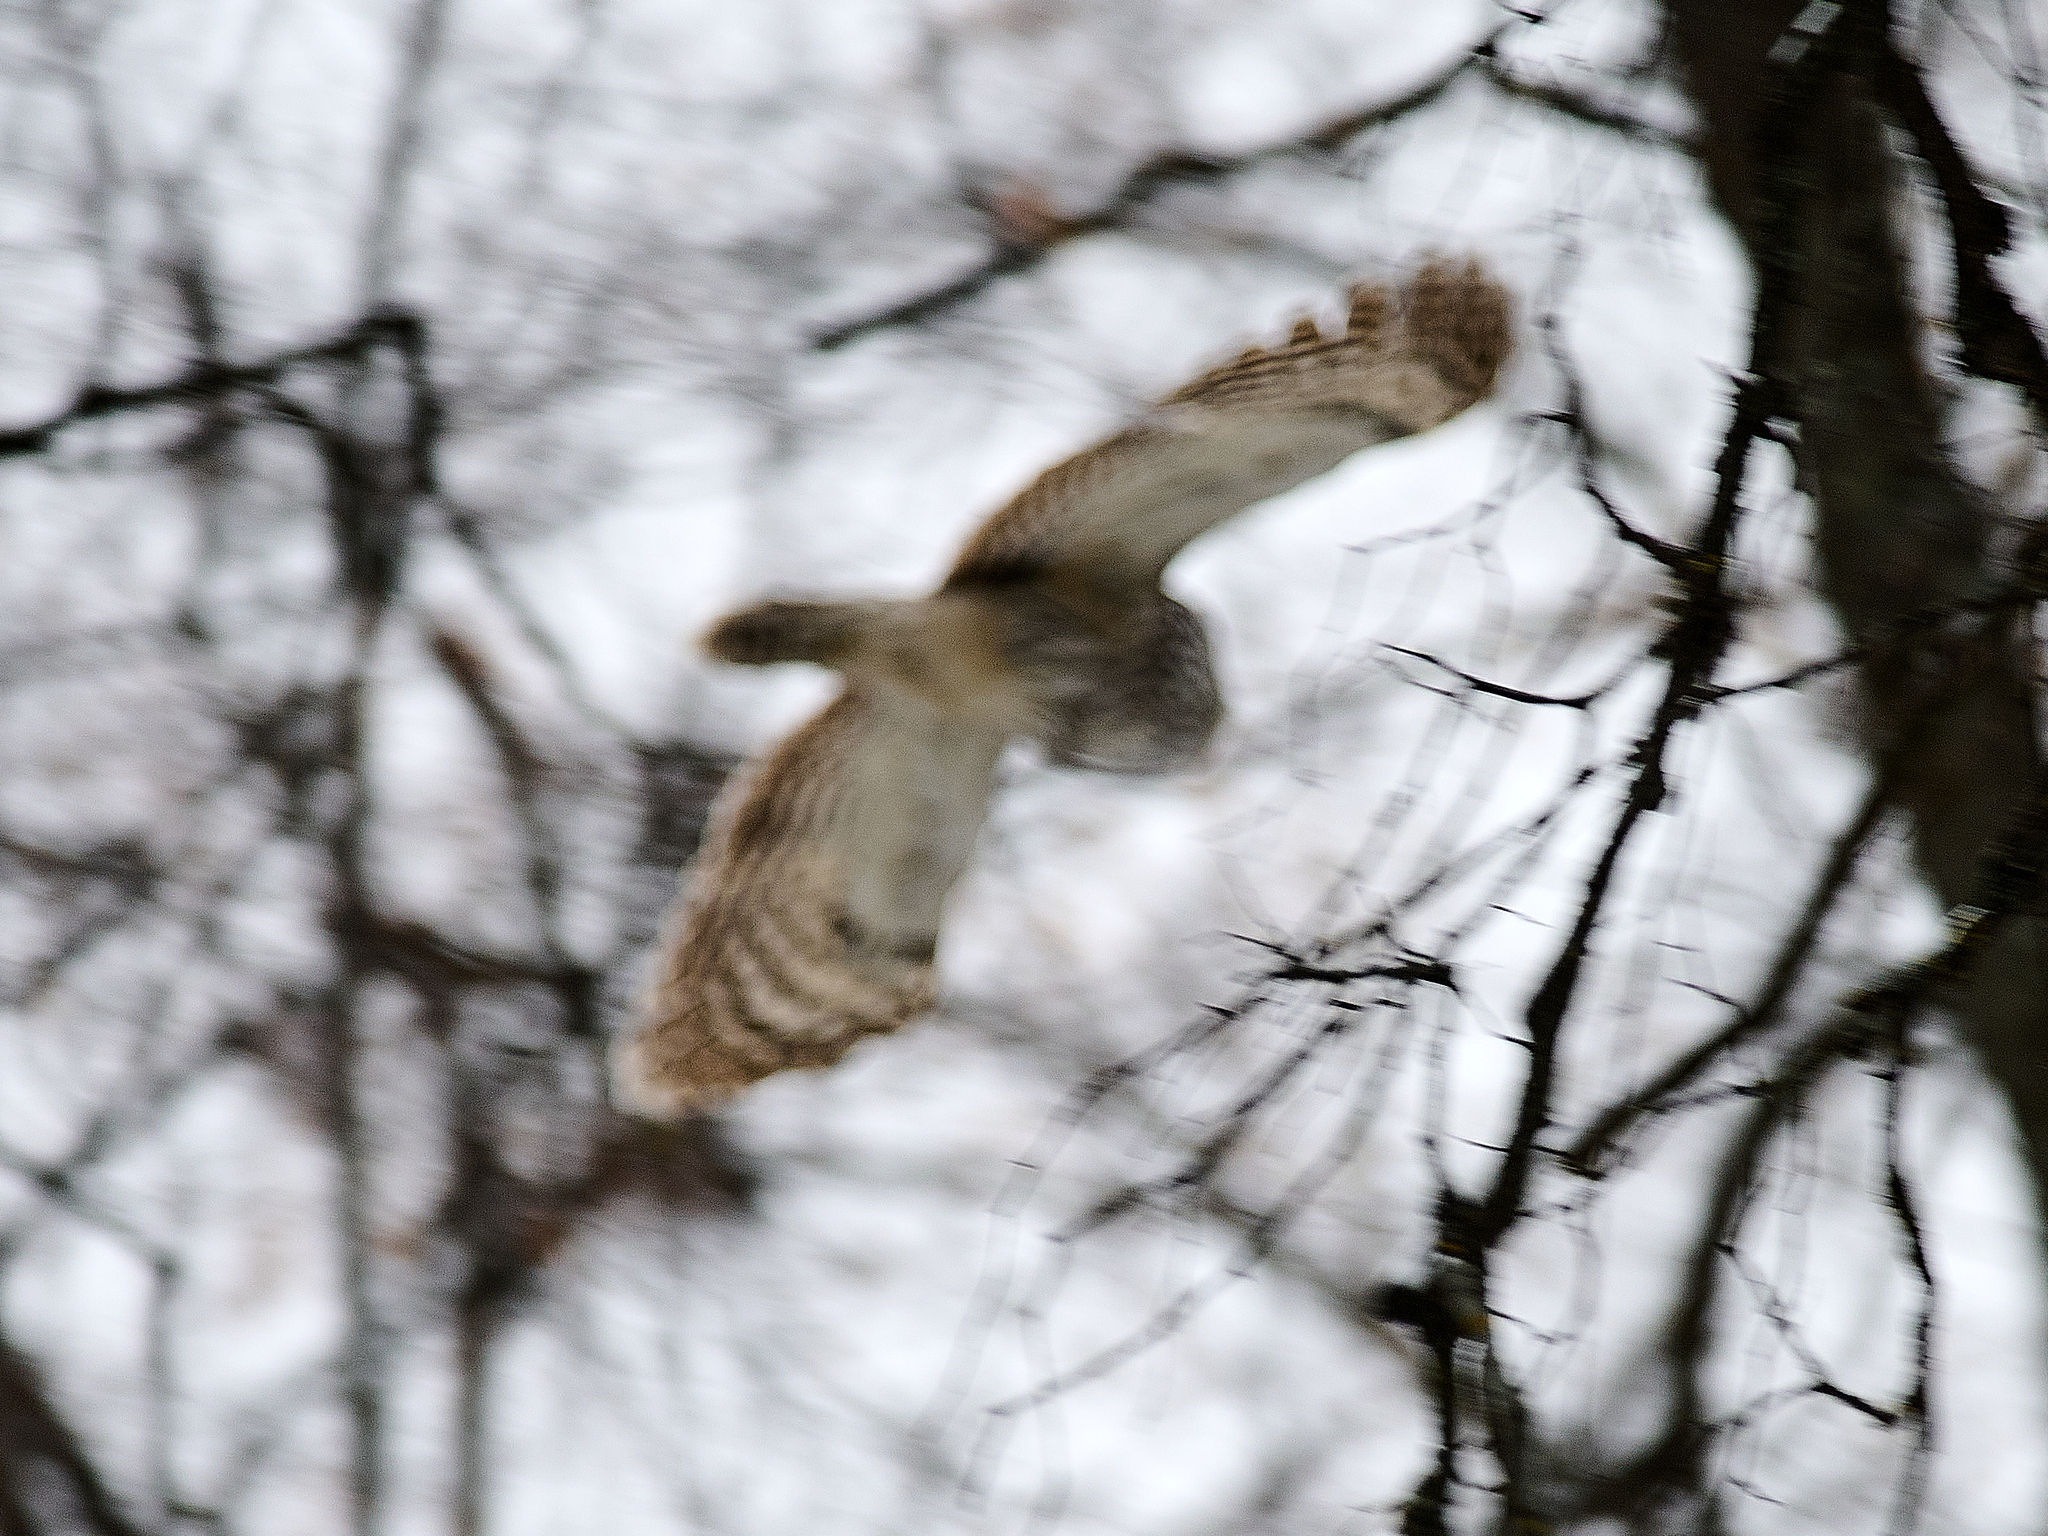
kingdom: Animalia
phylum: Chordata
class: Aves
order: Strigiformes
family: Strigidae
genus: Strix
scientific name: Strix uralensis
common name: Ural owl
